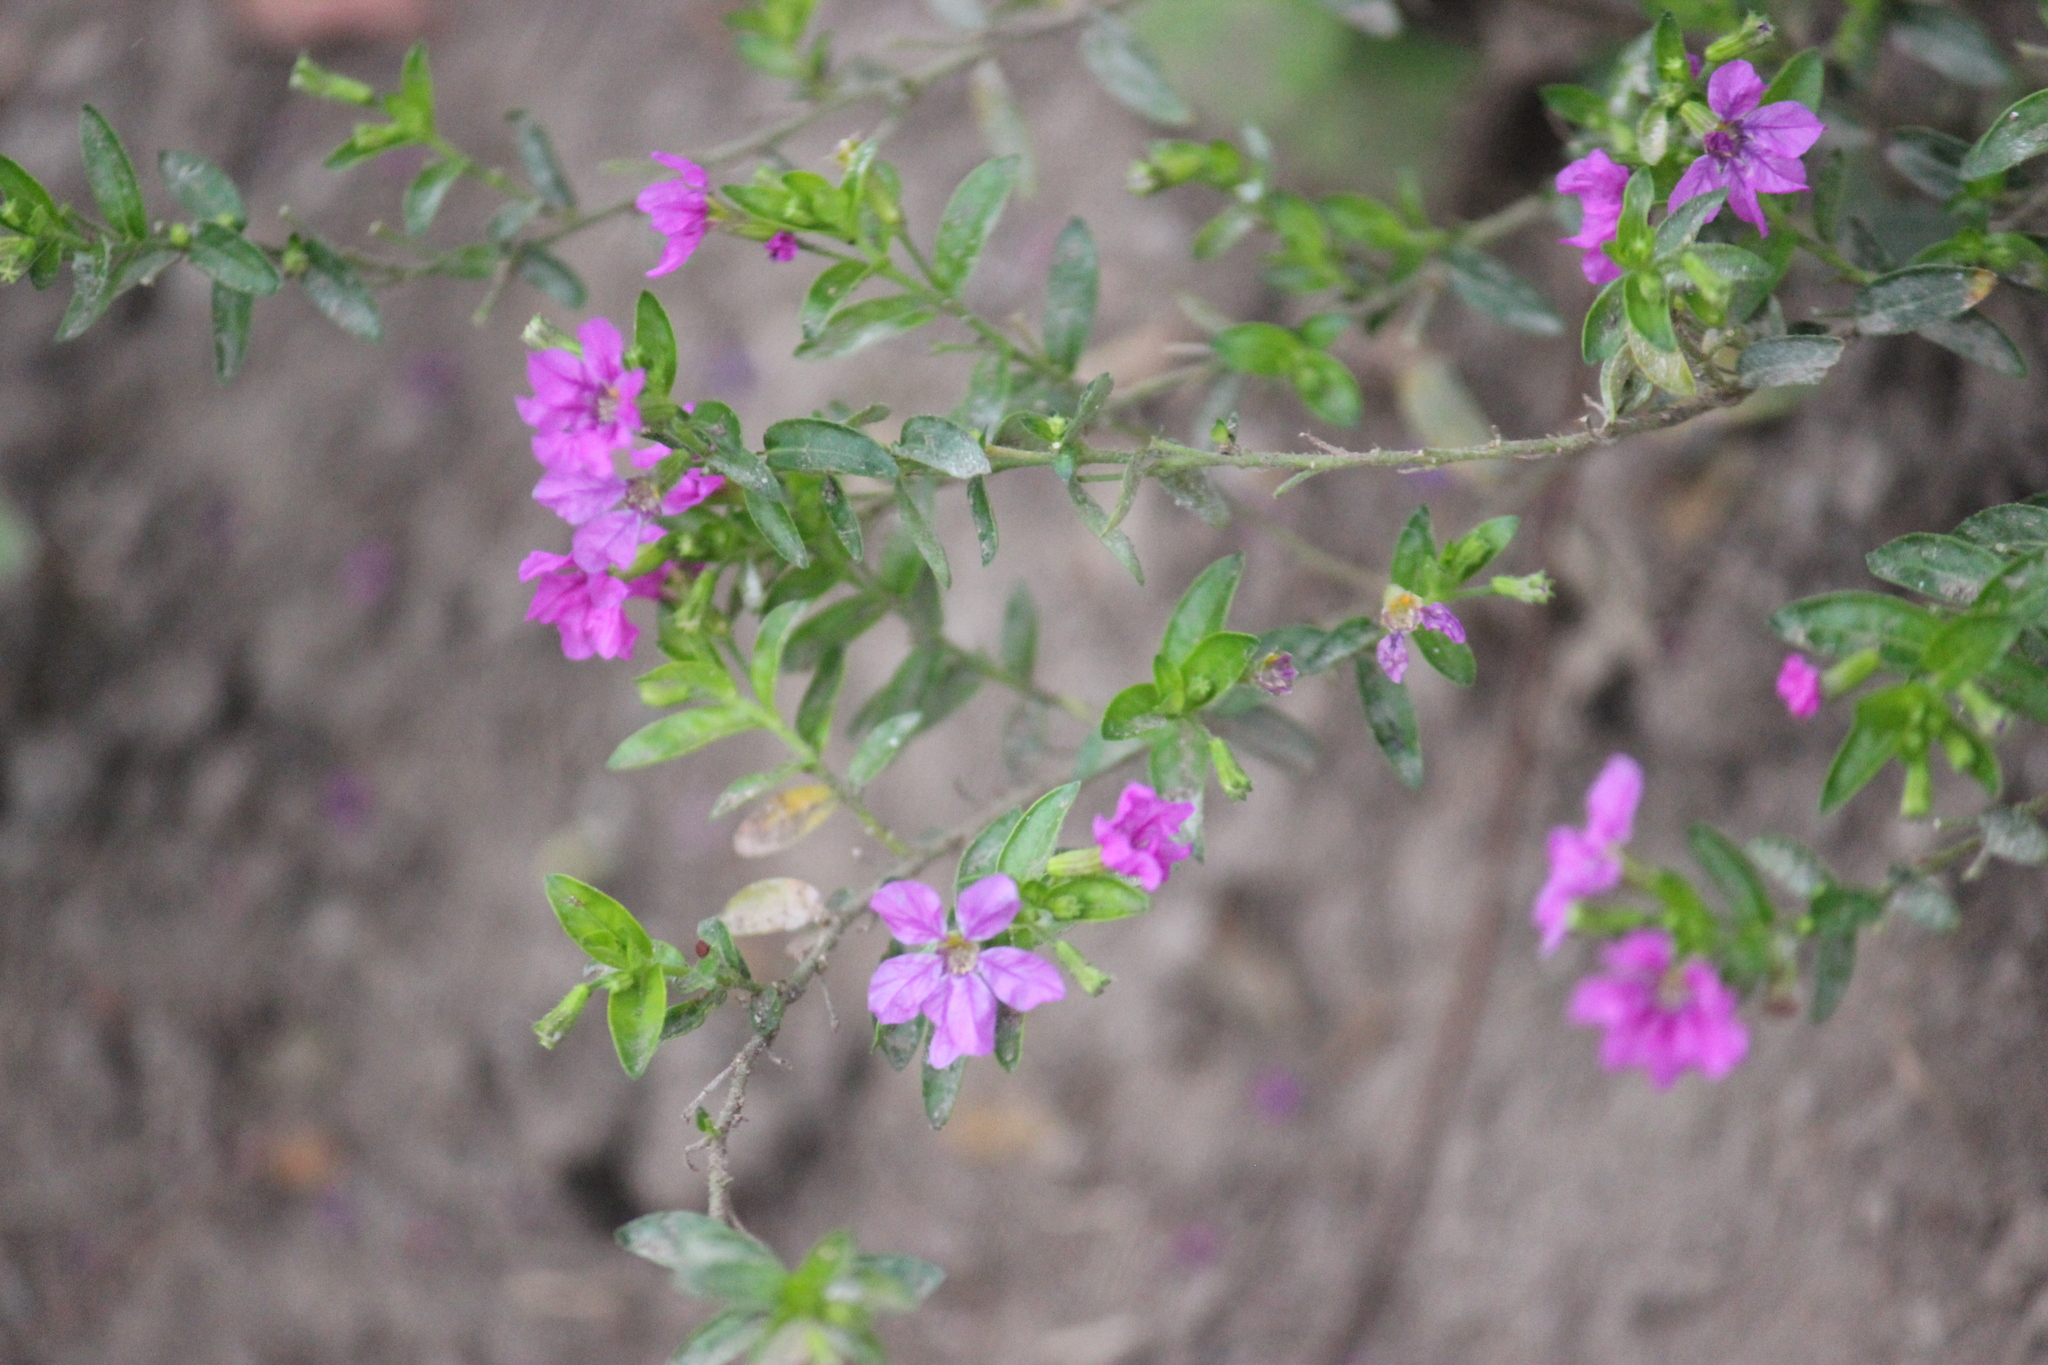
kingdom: Plantae
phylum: Tracheophyta
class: Magnoliopsida
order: Myrtales
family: Lythraceae
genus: Cuphea
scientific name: Cuphea hyssopifolia
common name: False heather
